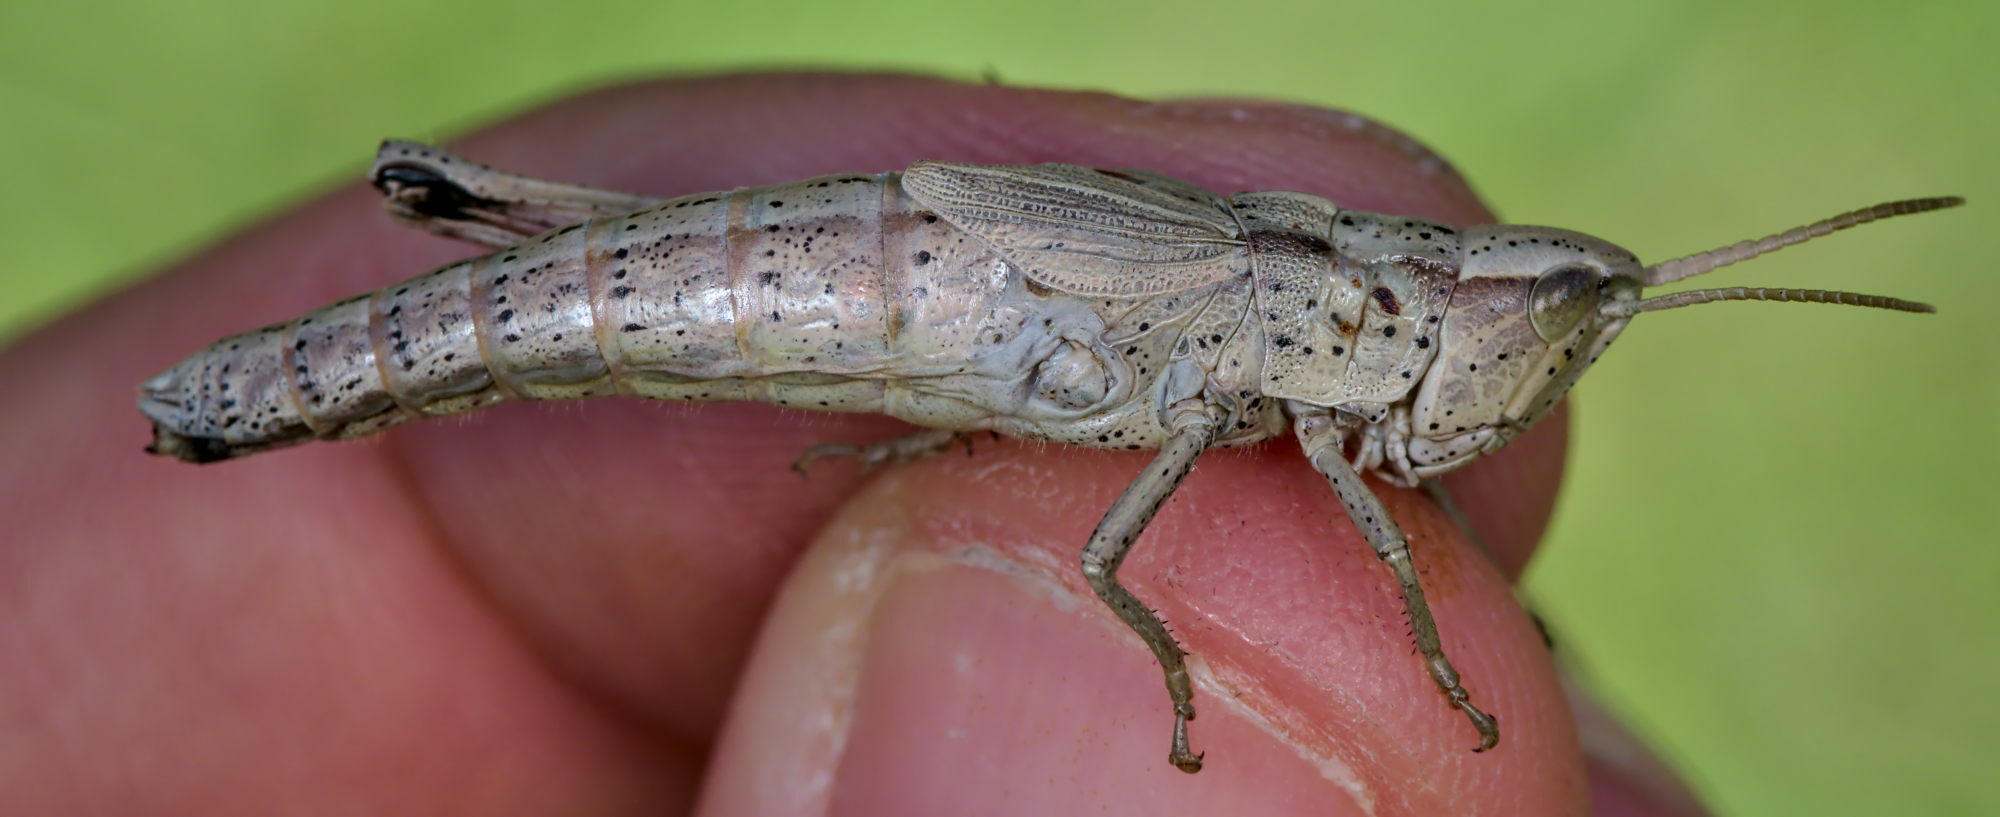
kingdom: Animalia
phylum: Arthropoda
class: Insecta
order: Orthoptera
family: Acrididae
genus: Chrysochraon
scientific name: Chrysochraon dispar
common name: Large gold grasshopper
